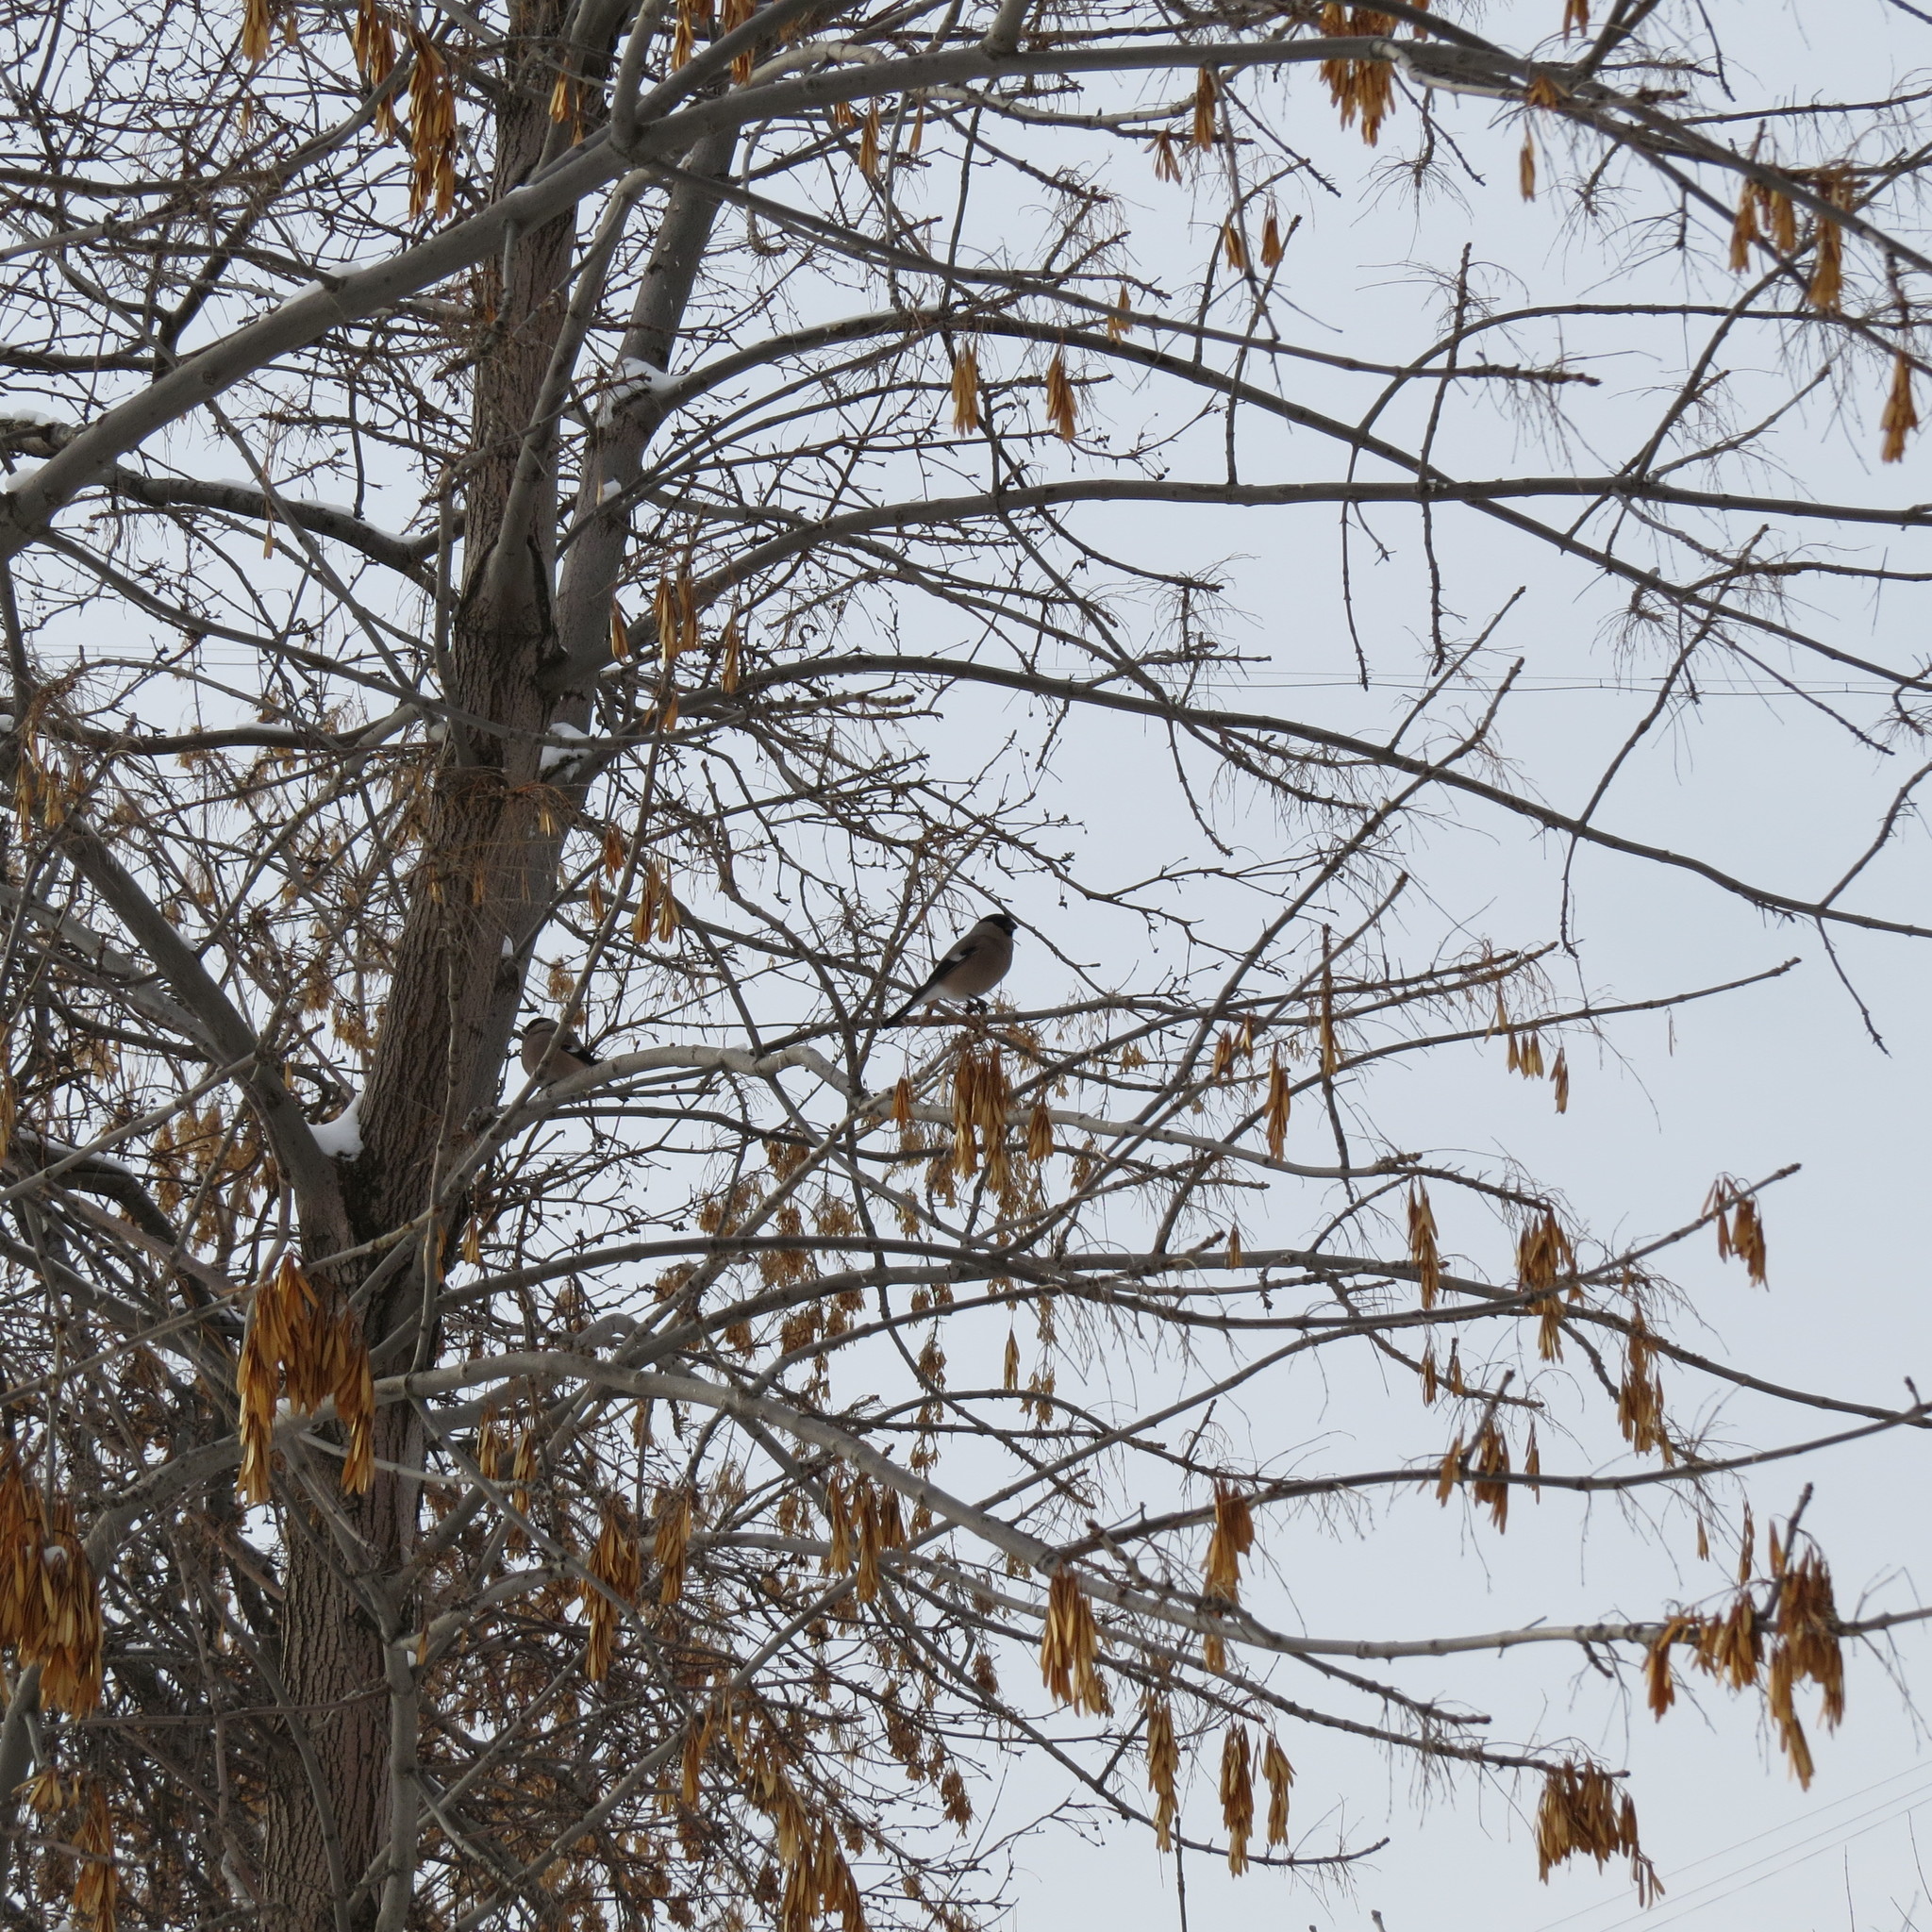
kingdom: Animalia
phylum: Chordata
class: Aves
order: Passeriformes
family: Fringillidae
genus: Pyrrhula
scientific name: Pyrrhula pyrrhula
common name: Eurasian bullfinch
